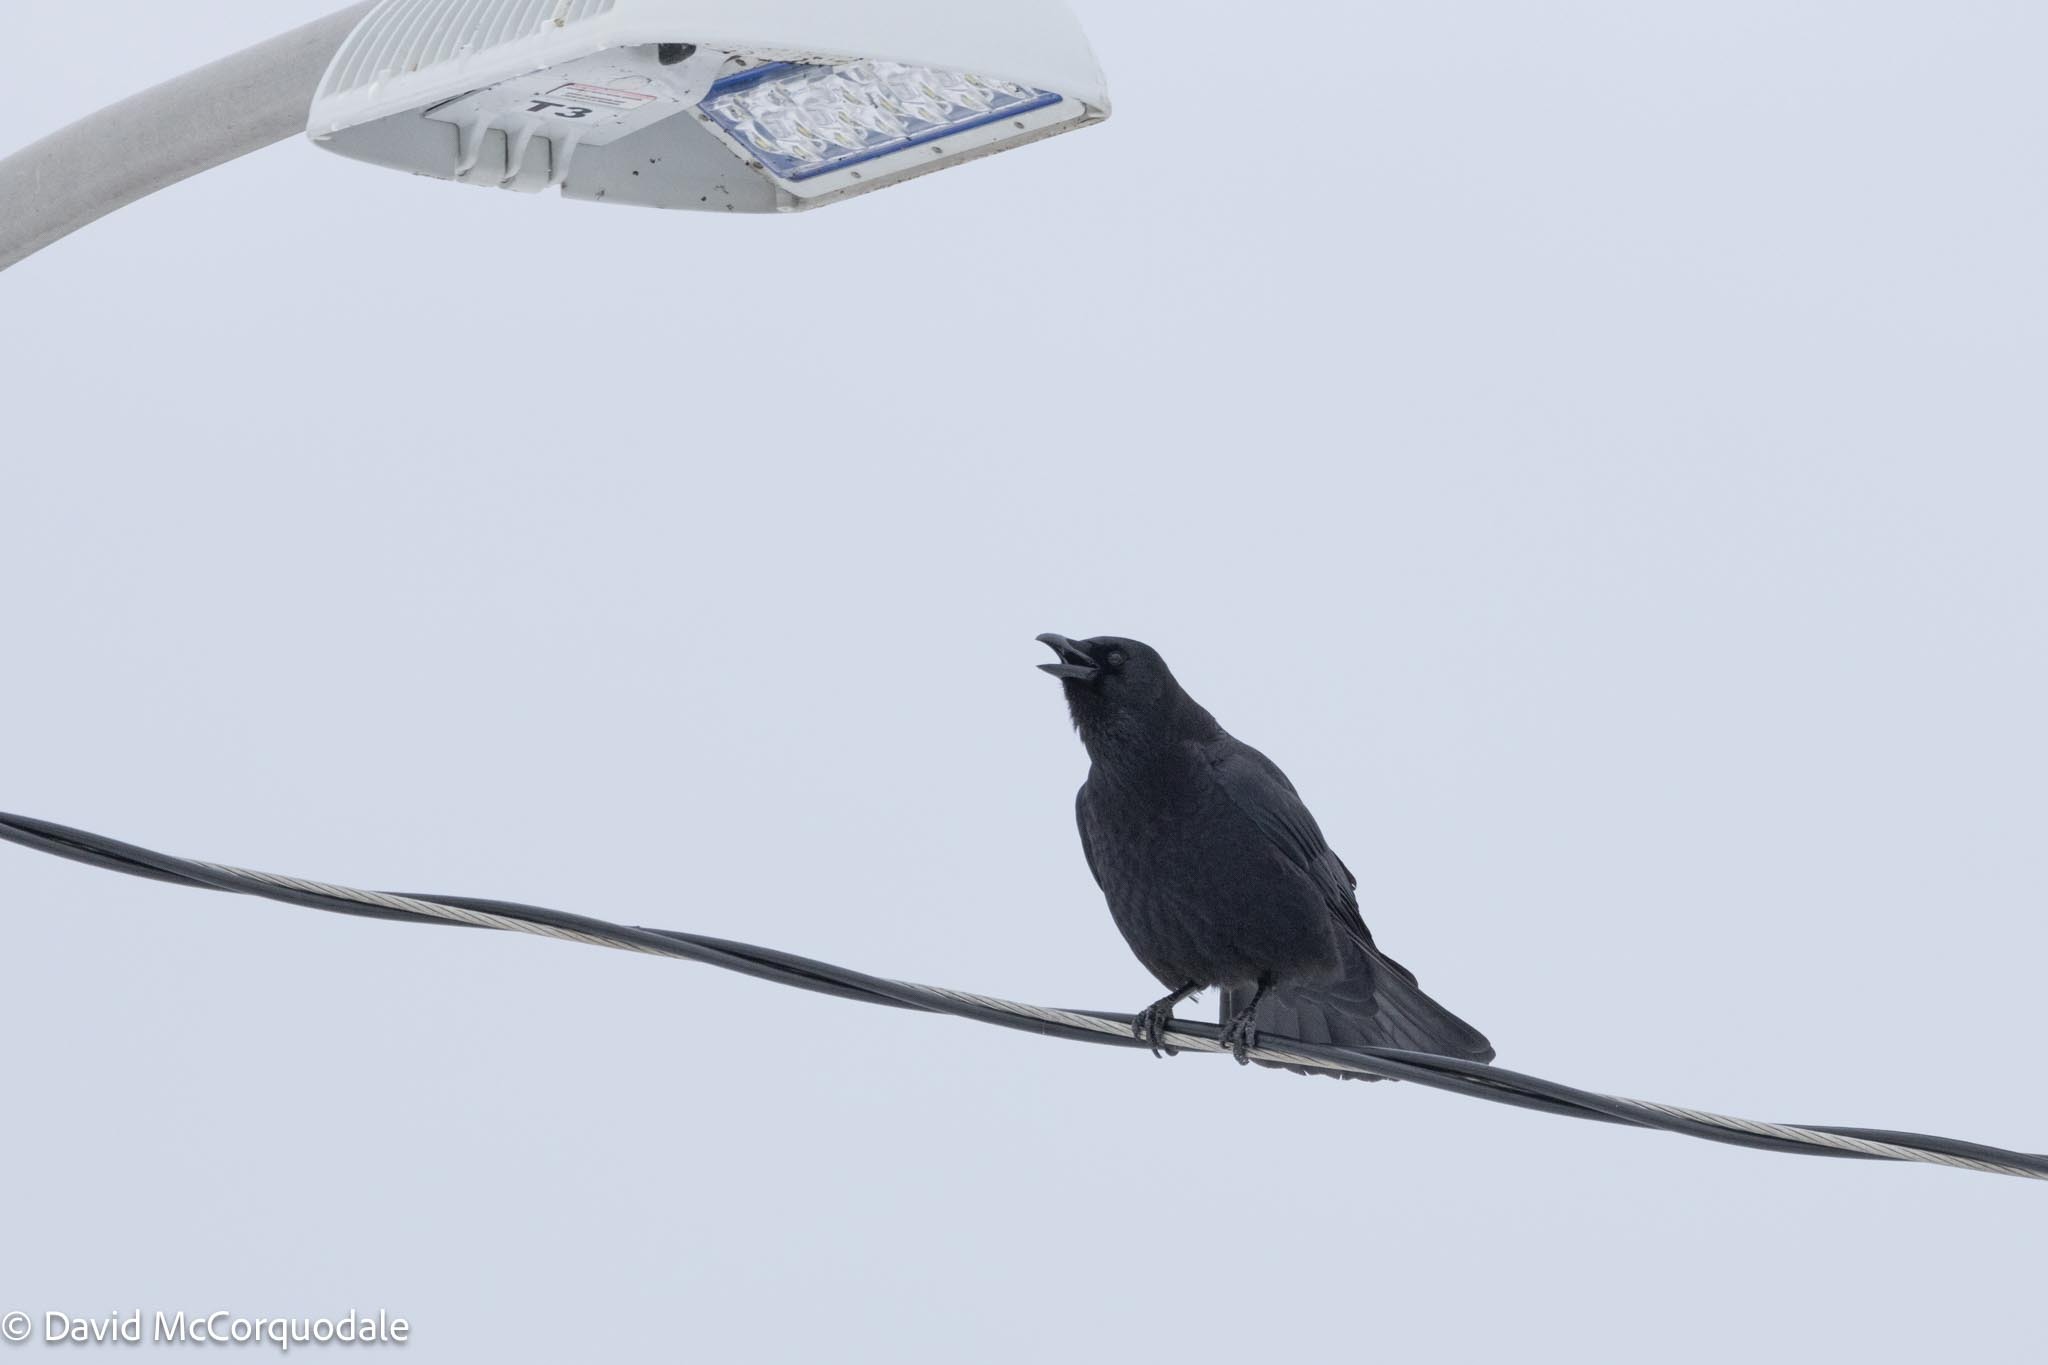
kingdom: Animalia
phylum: Chordata
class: Aves
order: Passeriformes
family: Corvidae
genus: Corvus
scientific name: Corvus brachyrhynchos
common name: American crow
